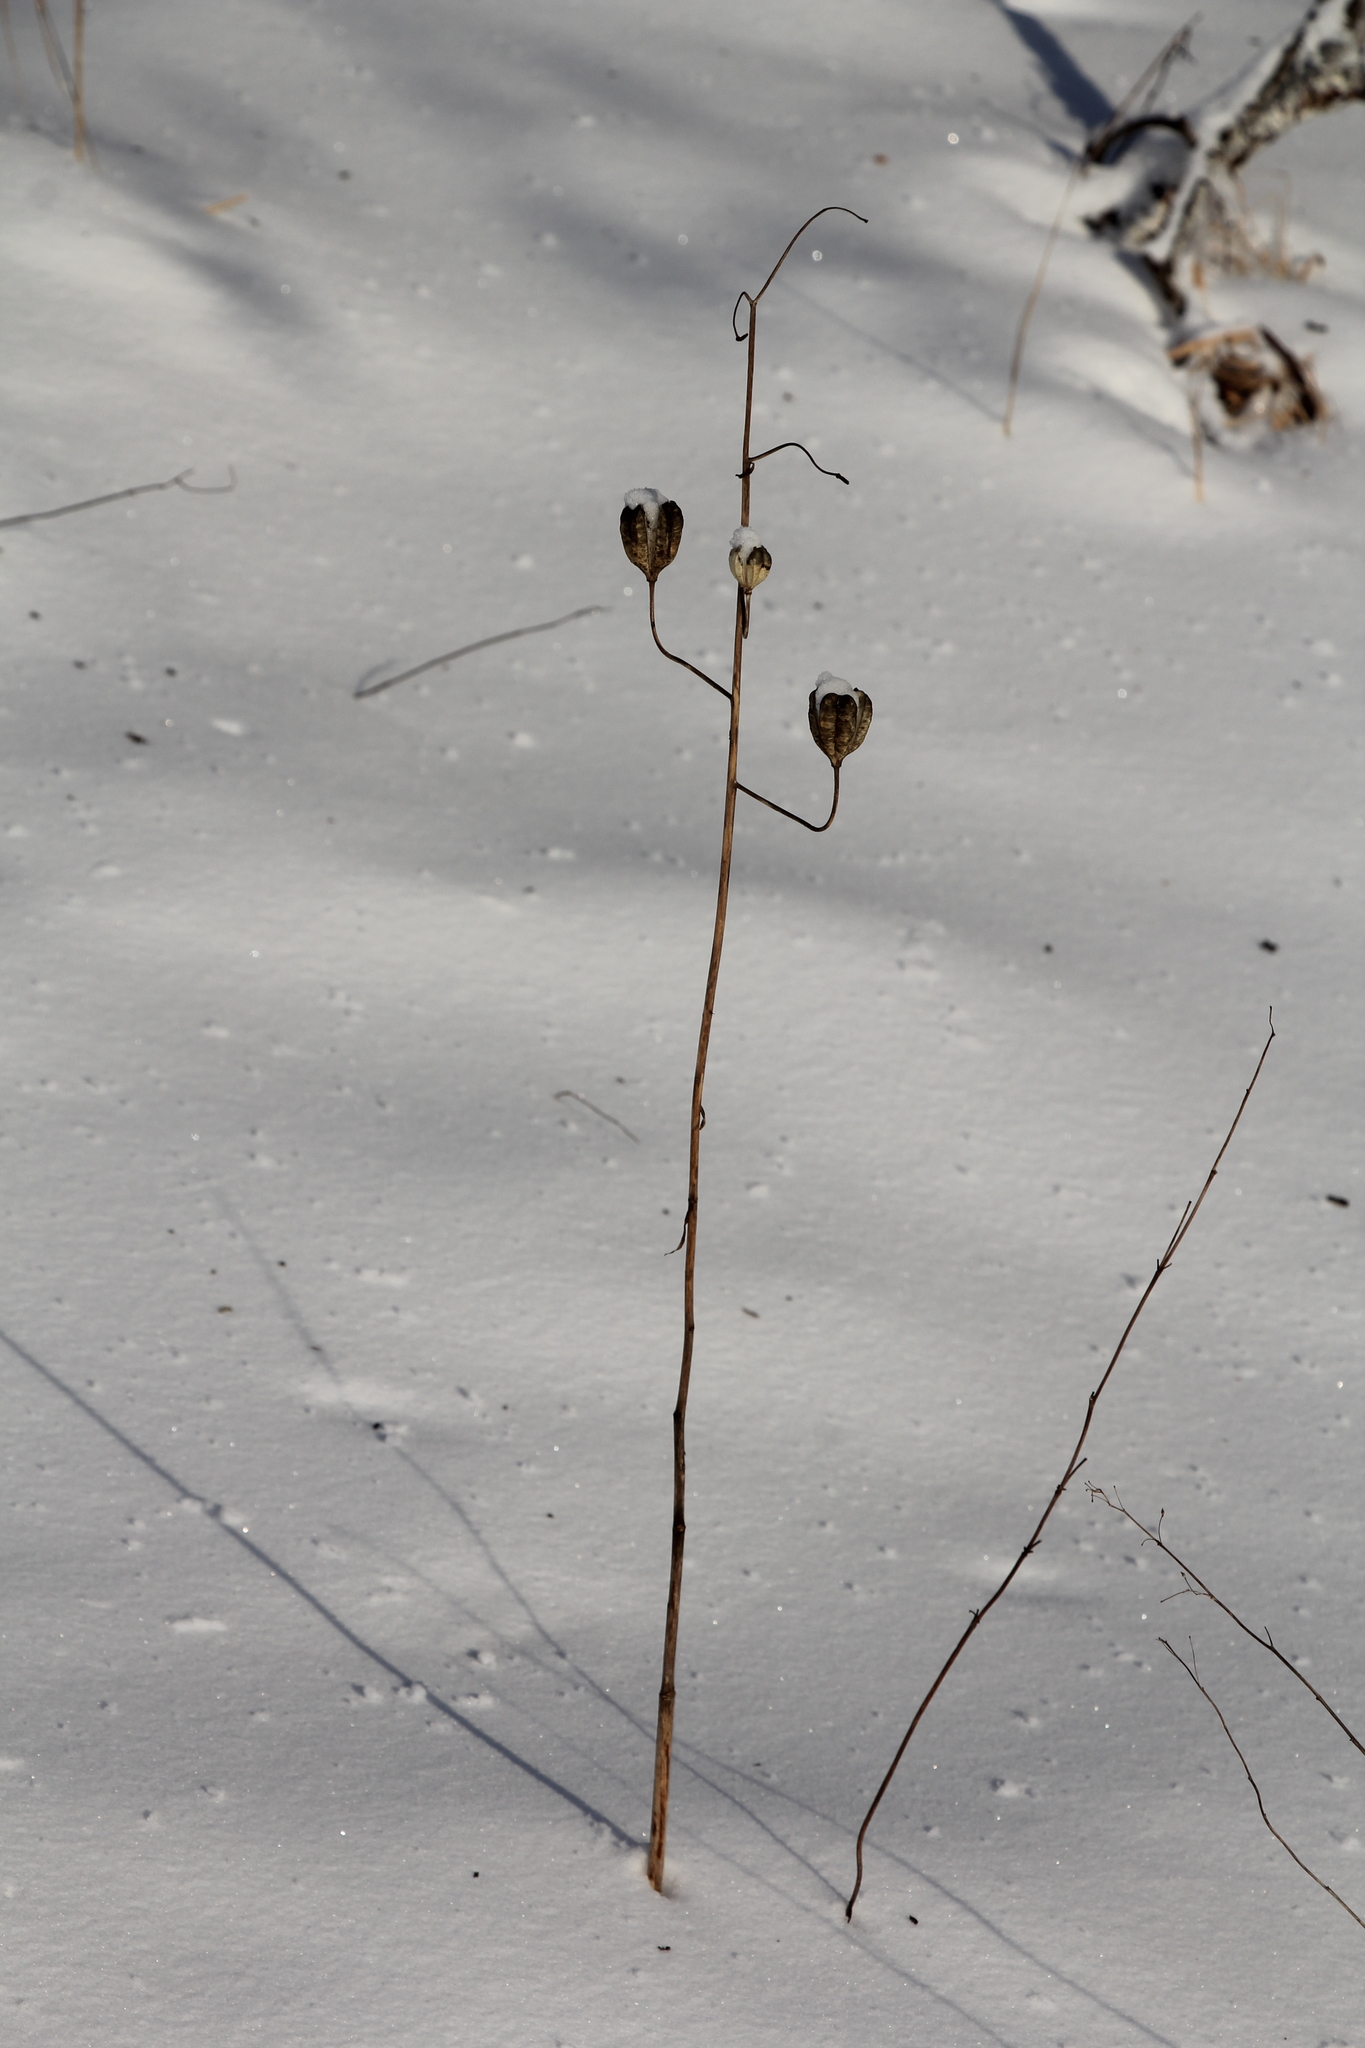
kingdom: Plantae
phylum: Tracheophyta
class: Liliopsida
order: Liliales
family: Liliaceae
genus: Lilium
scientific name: Lilium martagon
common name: Martagon lily
